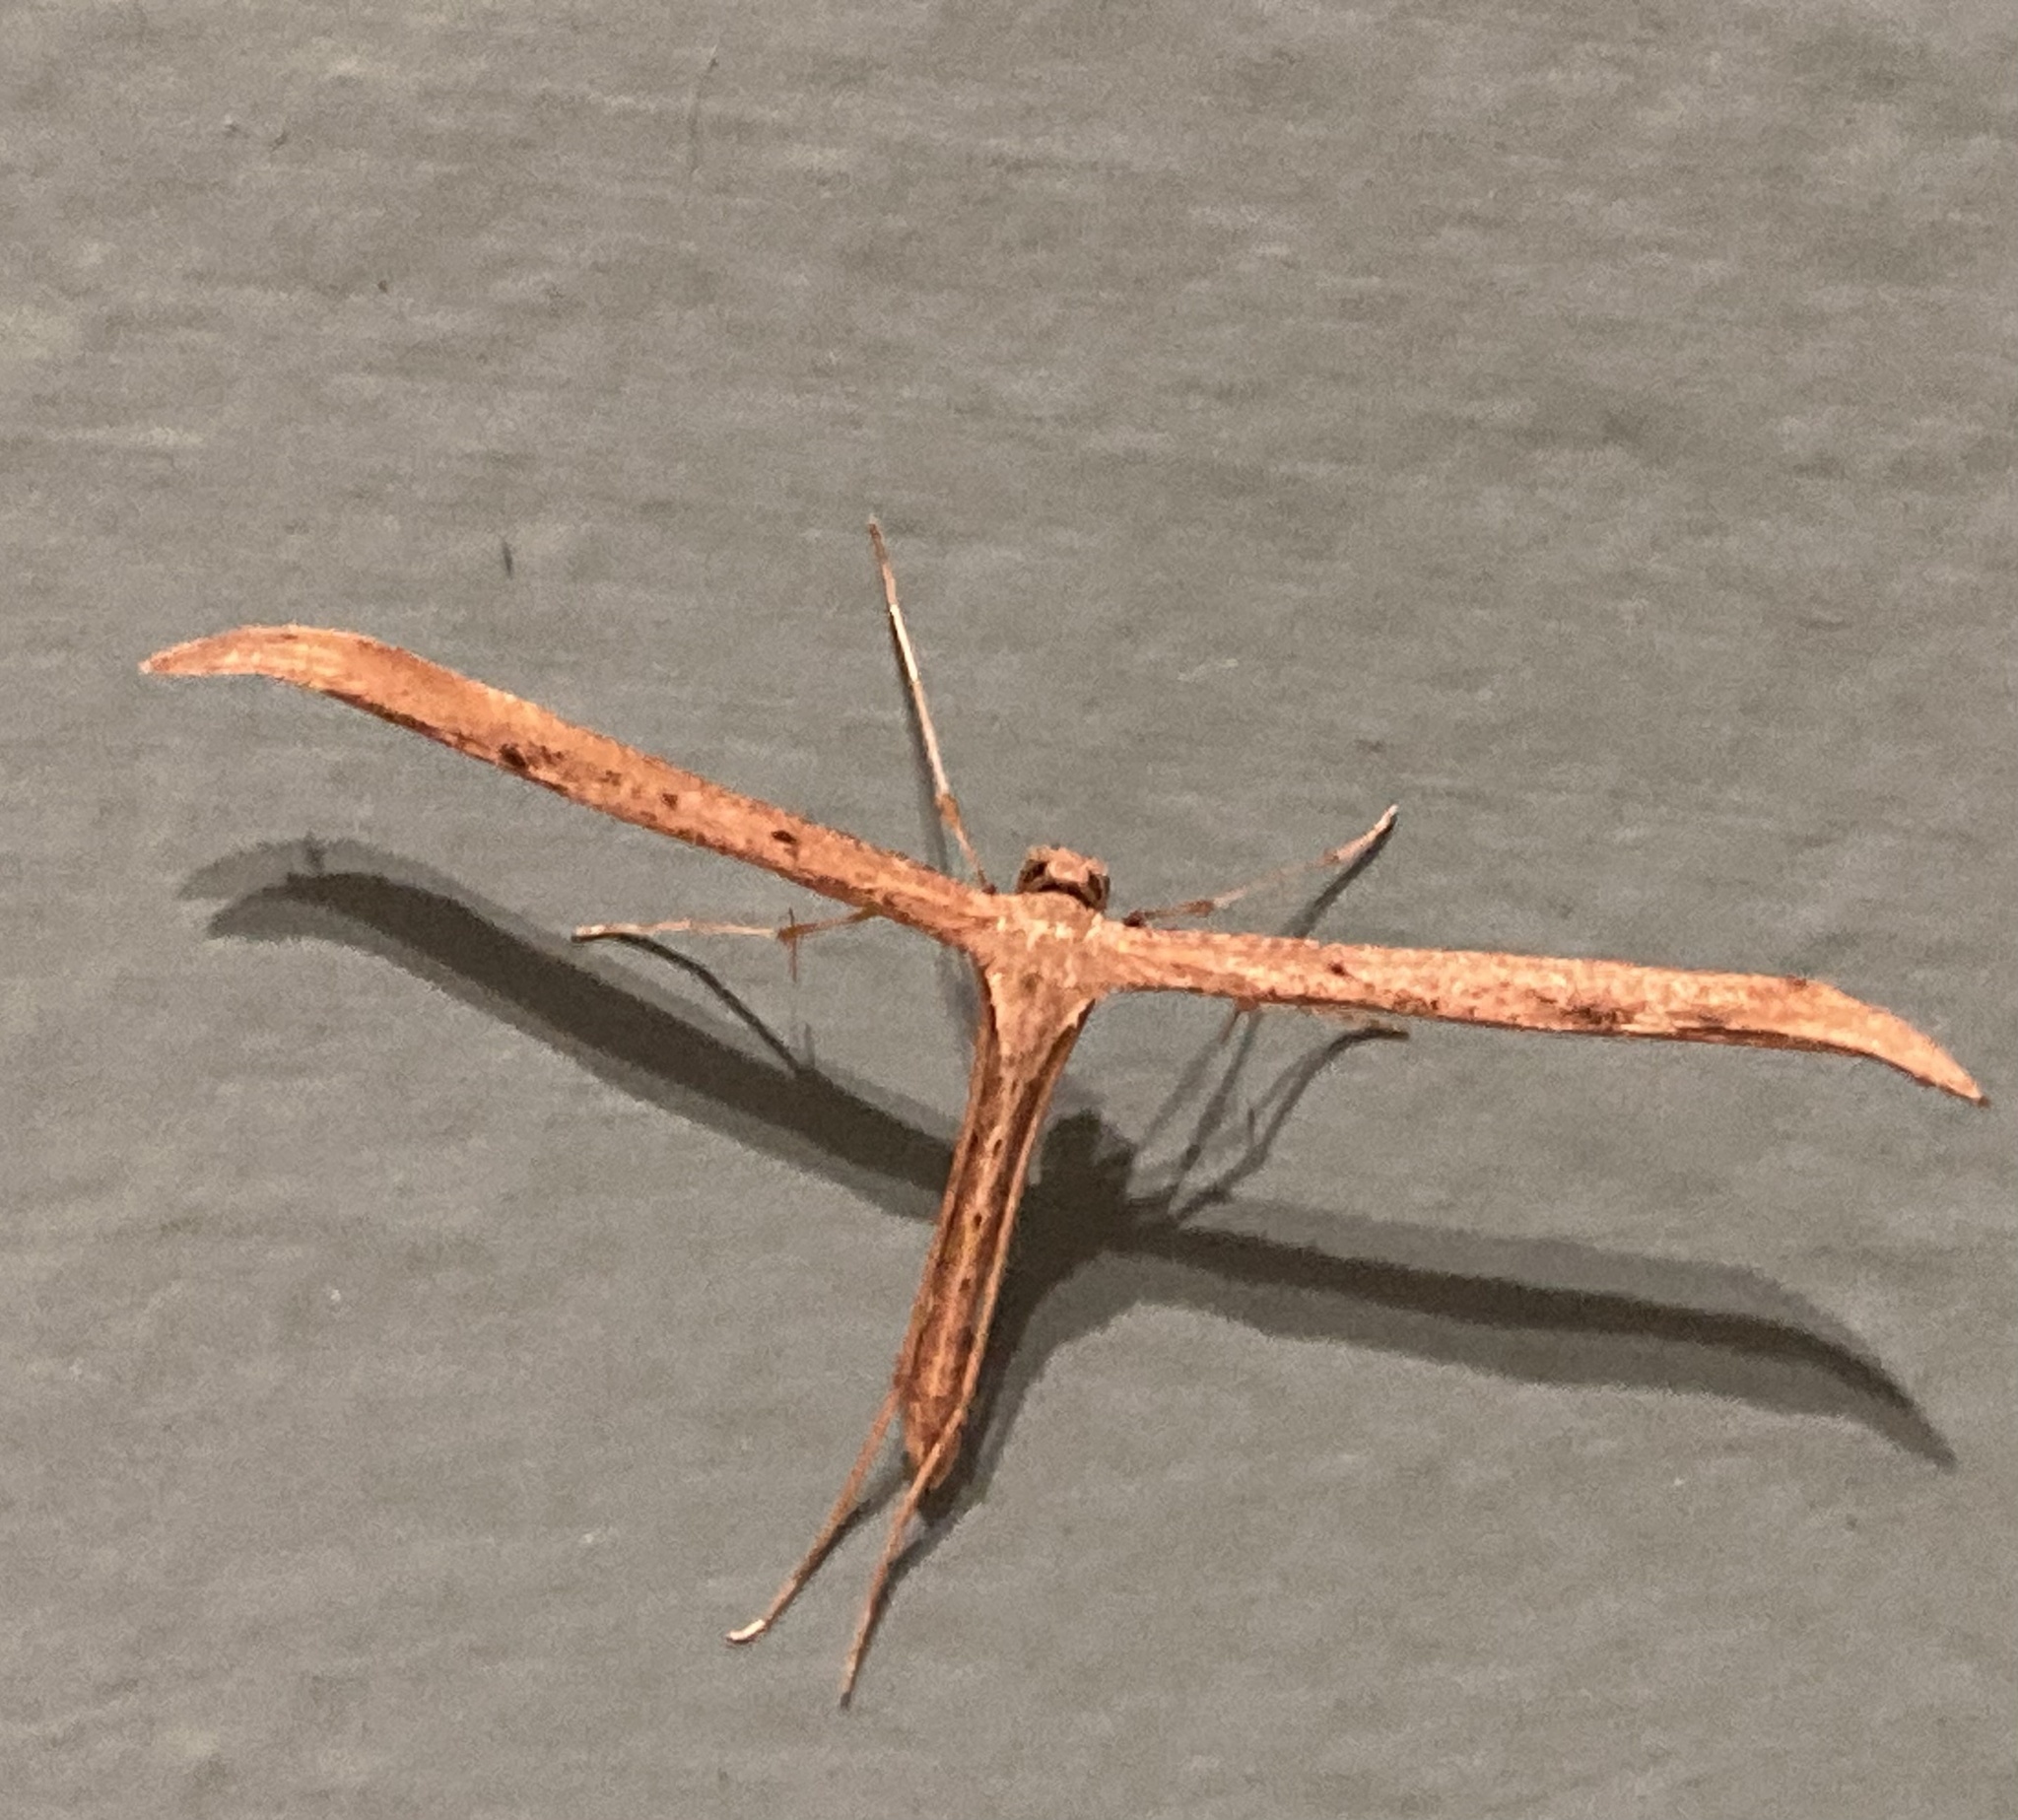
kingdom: Animalia
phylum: Arthropoda
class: Insecta
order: Lepidoptera
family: Pterophoridae
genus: Emmelina
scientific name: Emmelina monodactyla
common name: Common plume
